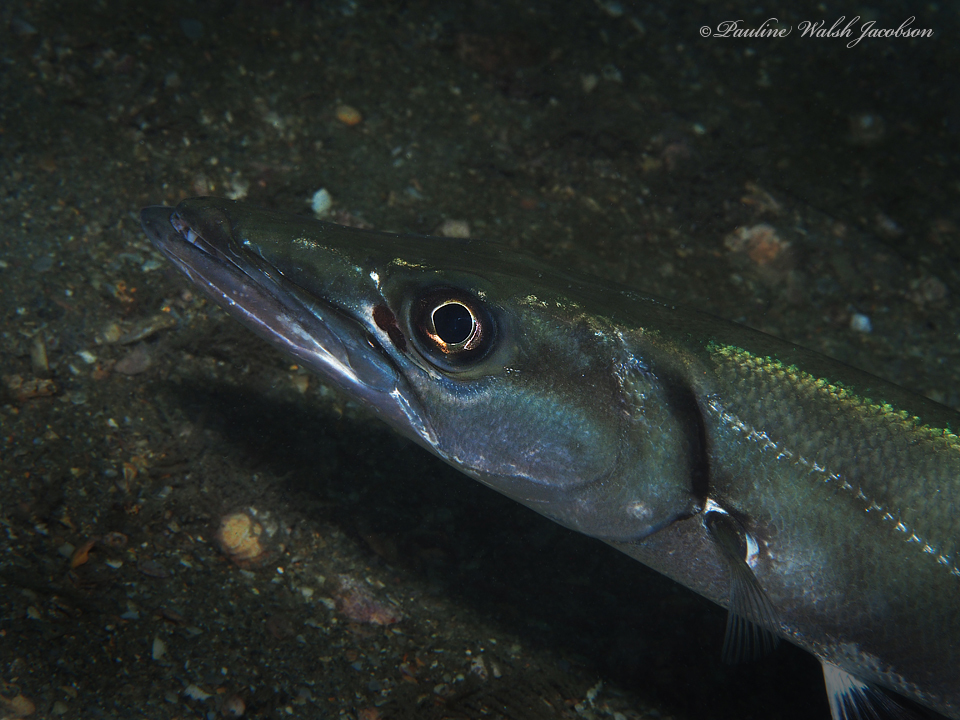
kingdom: Animalia
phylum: Chordata
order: Perciformes
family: Sphyraenidae
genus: Sphyraena
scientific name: Sphyraena barracuda
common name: Great barracuda
